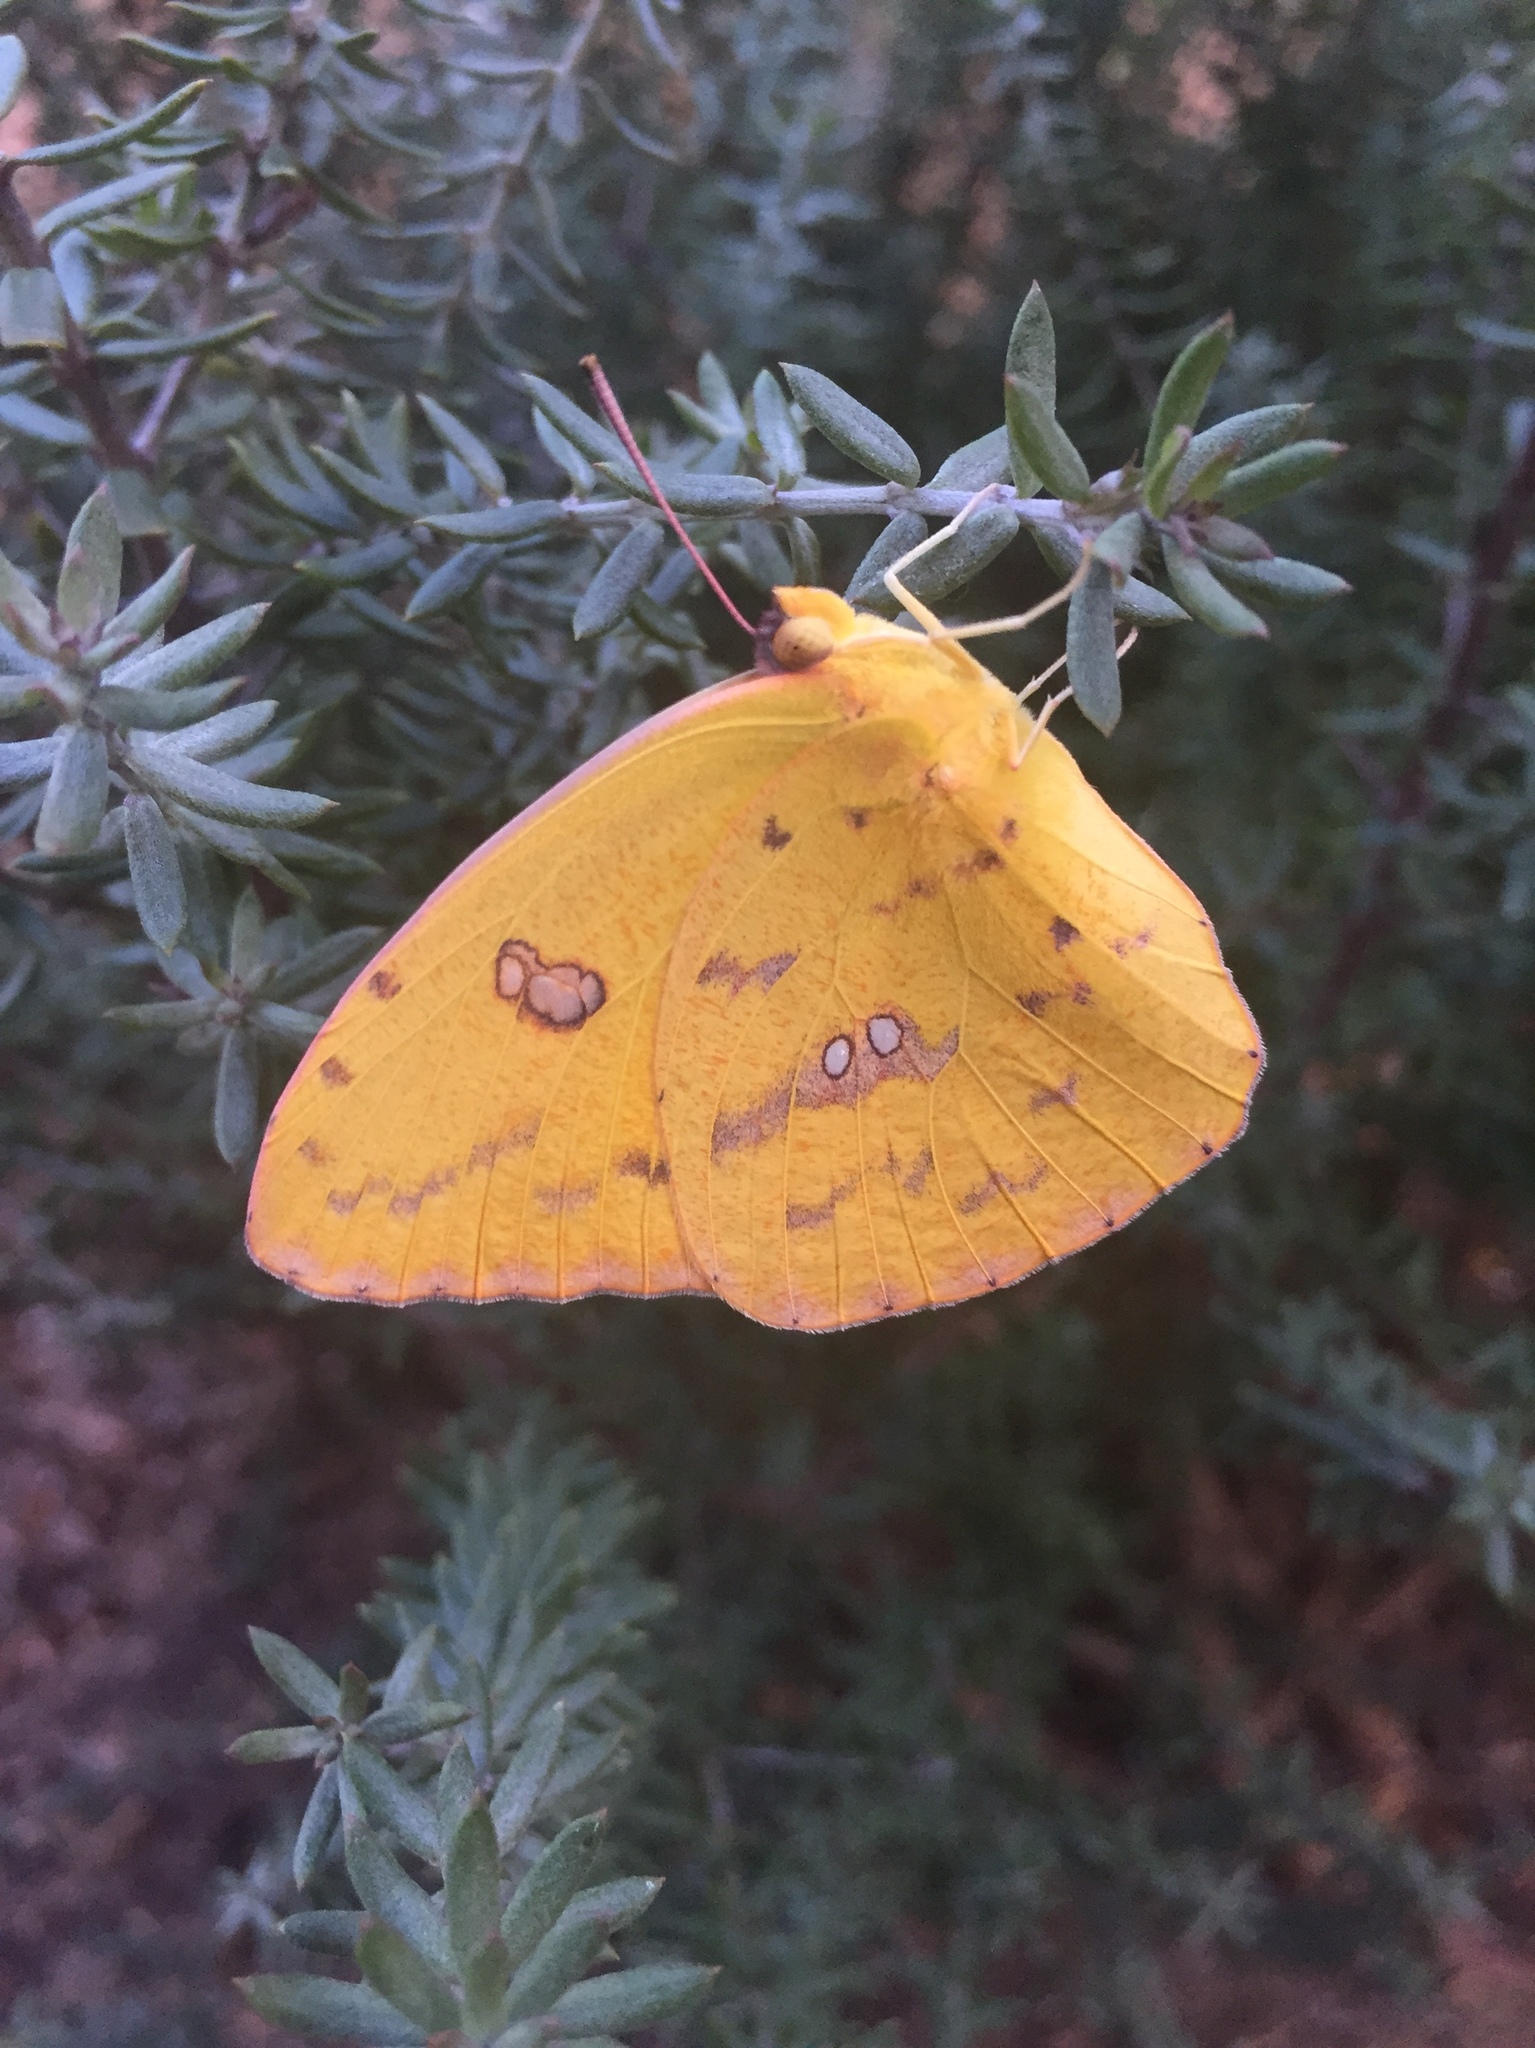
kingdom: Animalia
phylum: Arthropoda
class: Insecta
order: Lepidoptera
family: Pieridae
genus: Phoebis
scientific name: Phoebis sennae
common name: Cloudless sulphur
